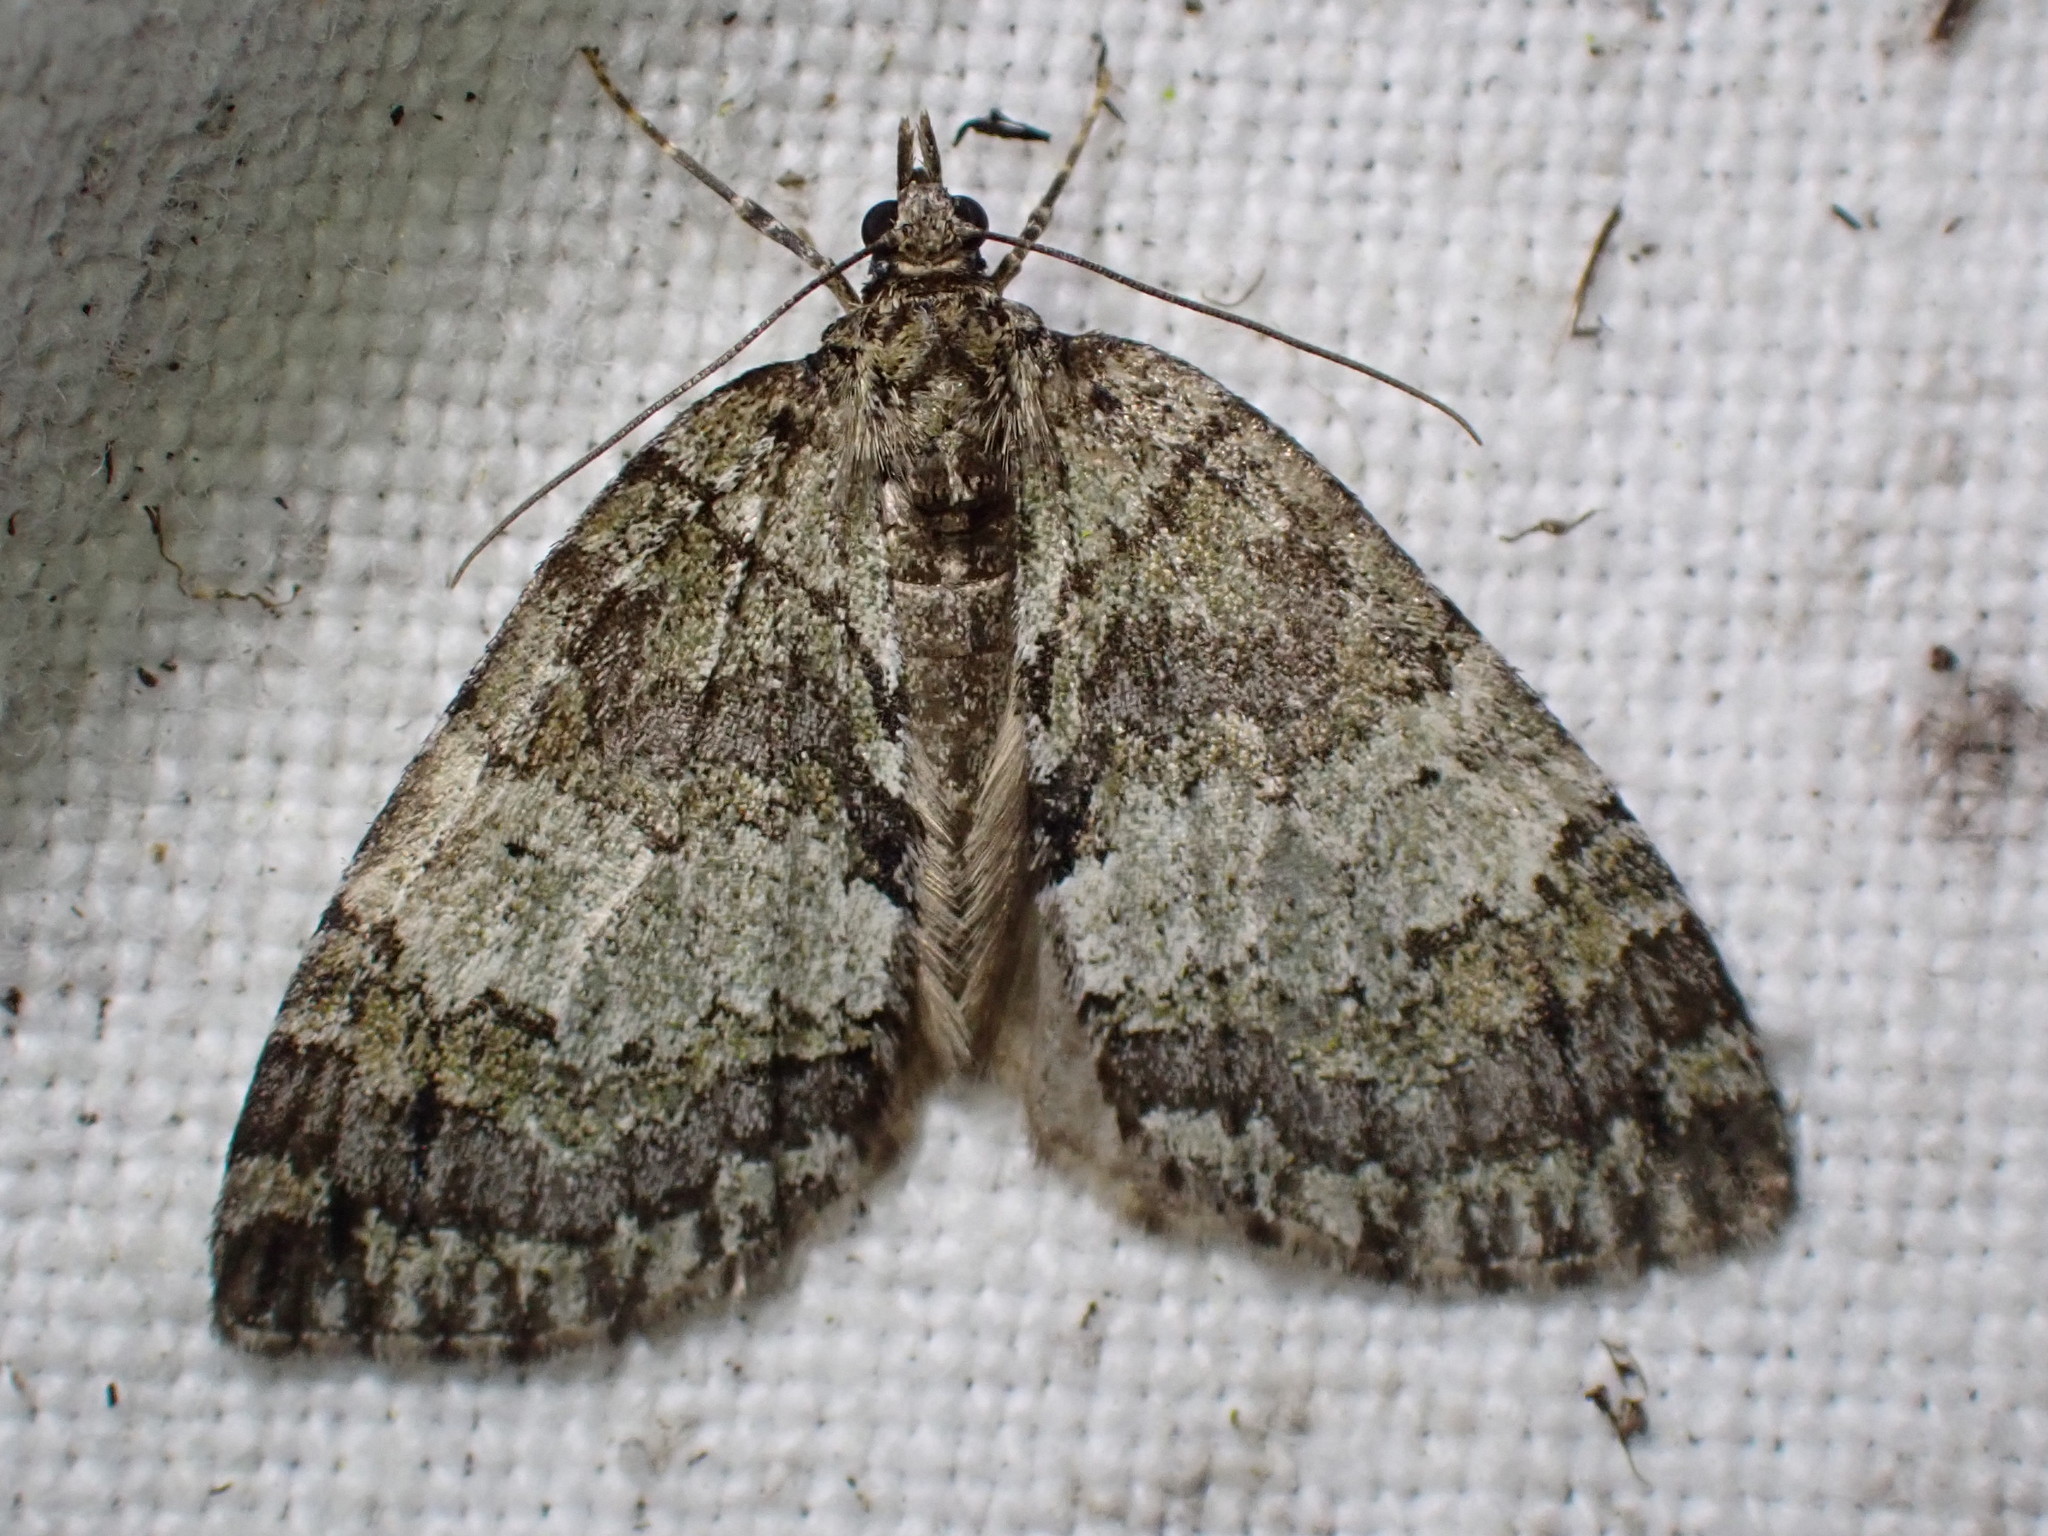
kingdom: Animalia
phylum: Arthropoda
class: Insecta
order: Lepidoptera
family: Geometridae
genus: Hydriomena
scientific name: Hydriomena impluviata
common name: May highflyer
